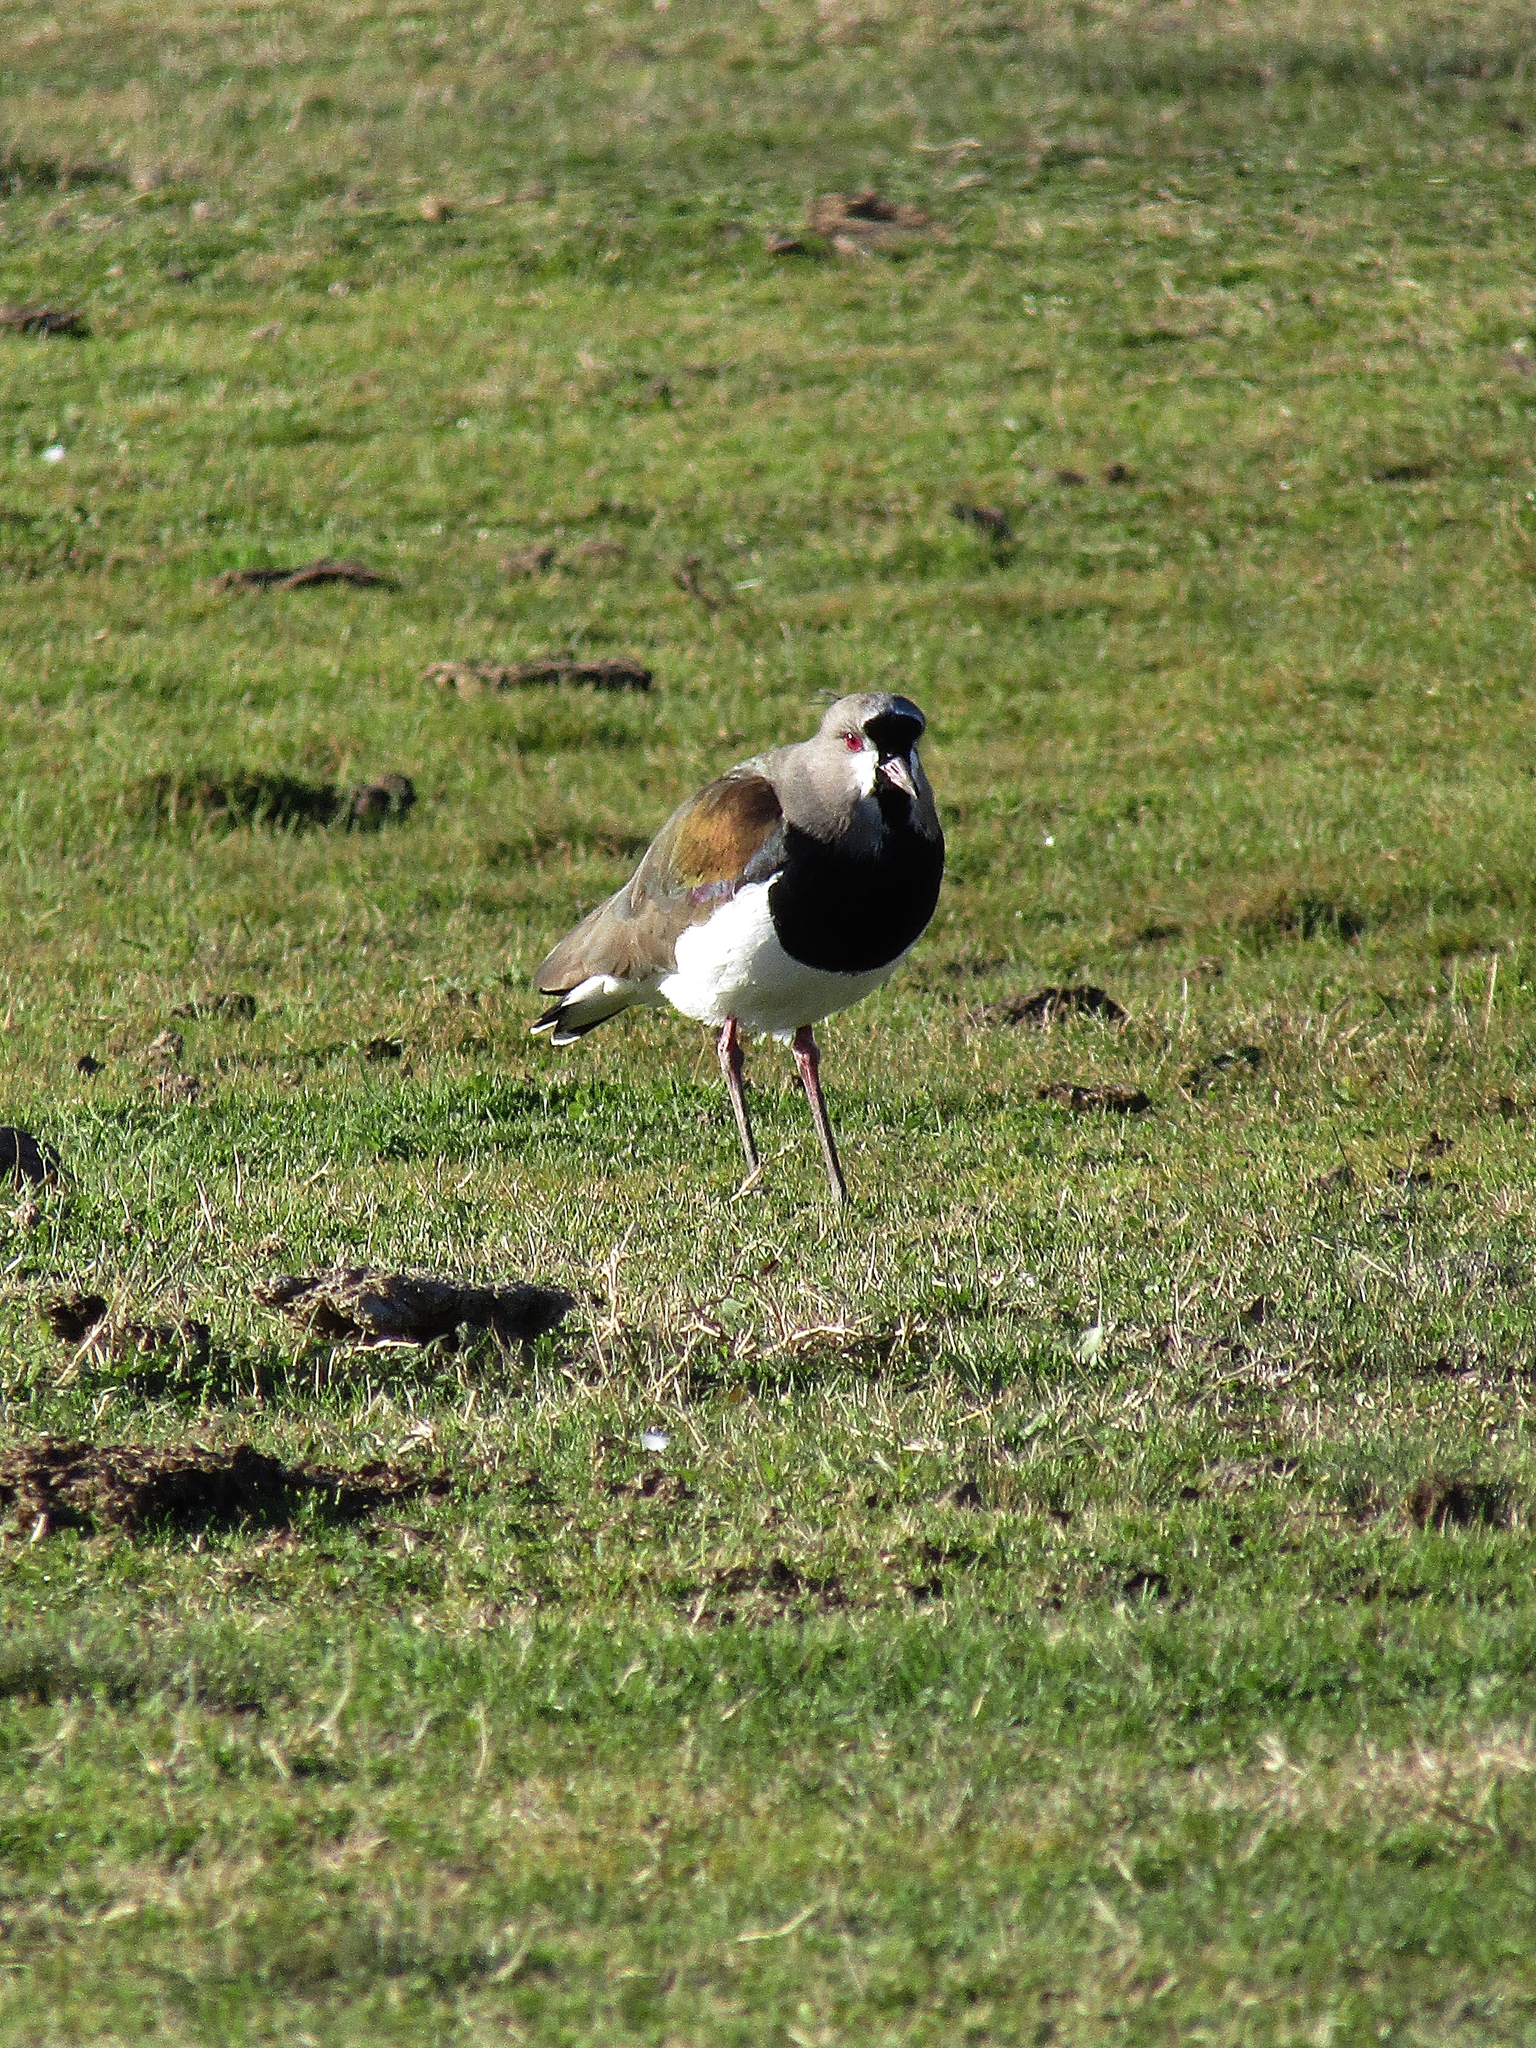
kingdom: Animalia
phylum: Chordata
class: Aves
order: Charadriiformes
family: Charadriidae
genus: Vanellus
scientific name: Vanellus chilensis
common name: Southern lapwing
